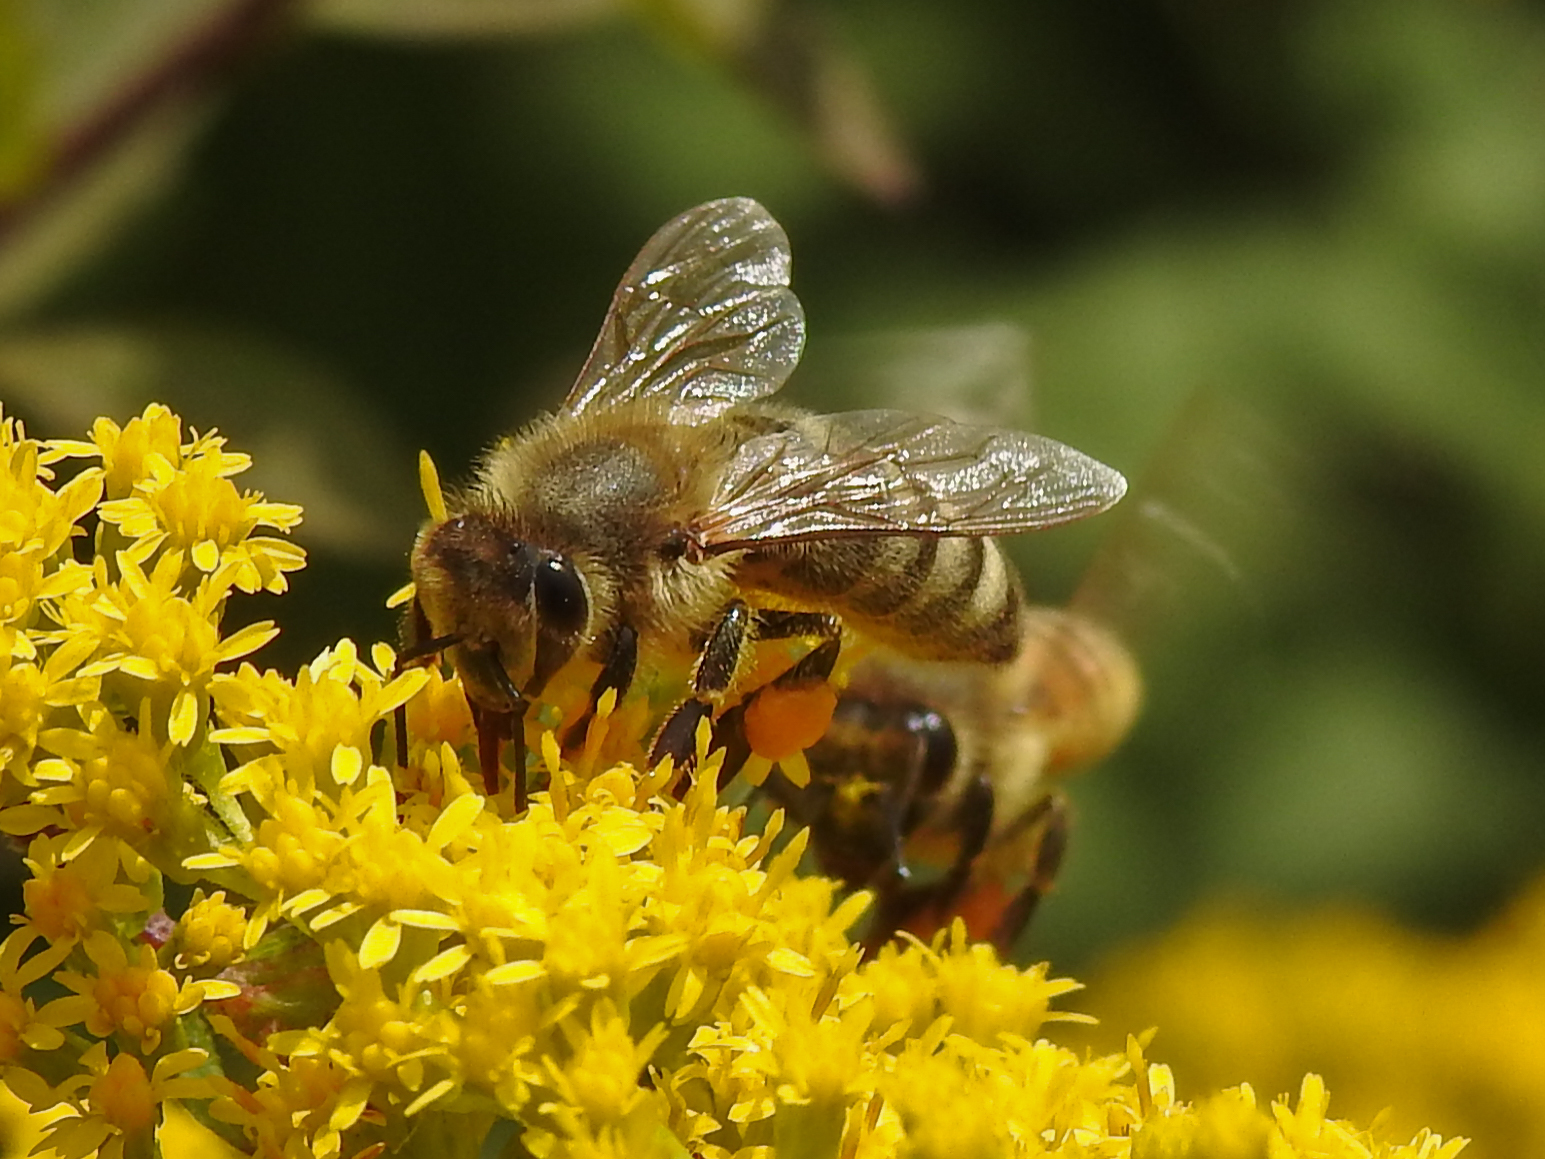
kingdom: Animalia
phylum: Arthropoda
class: Insecta
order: Hymenoptera
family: Apidae
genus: Apis
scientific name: Apis mellifera
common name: Honey bee
